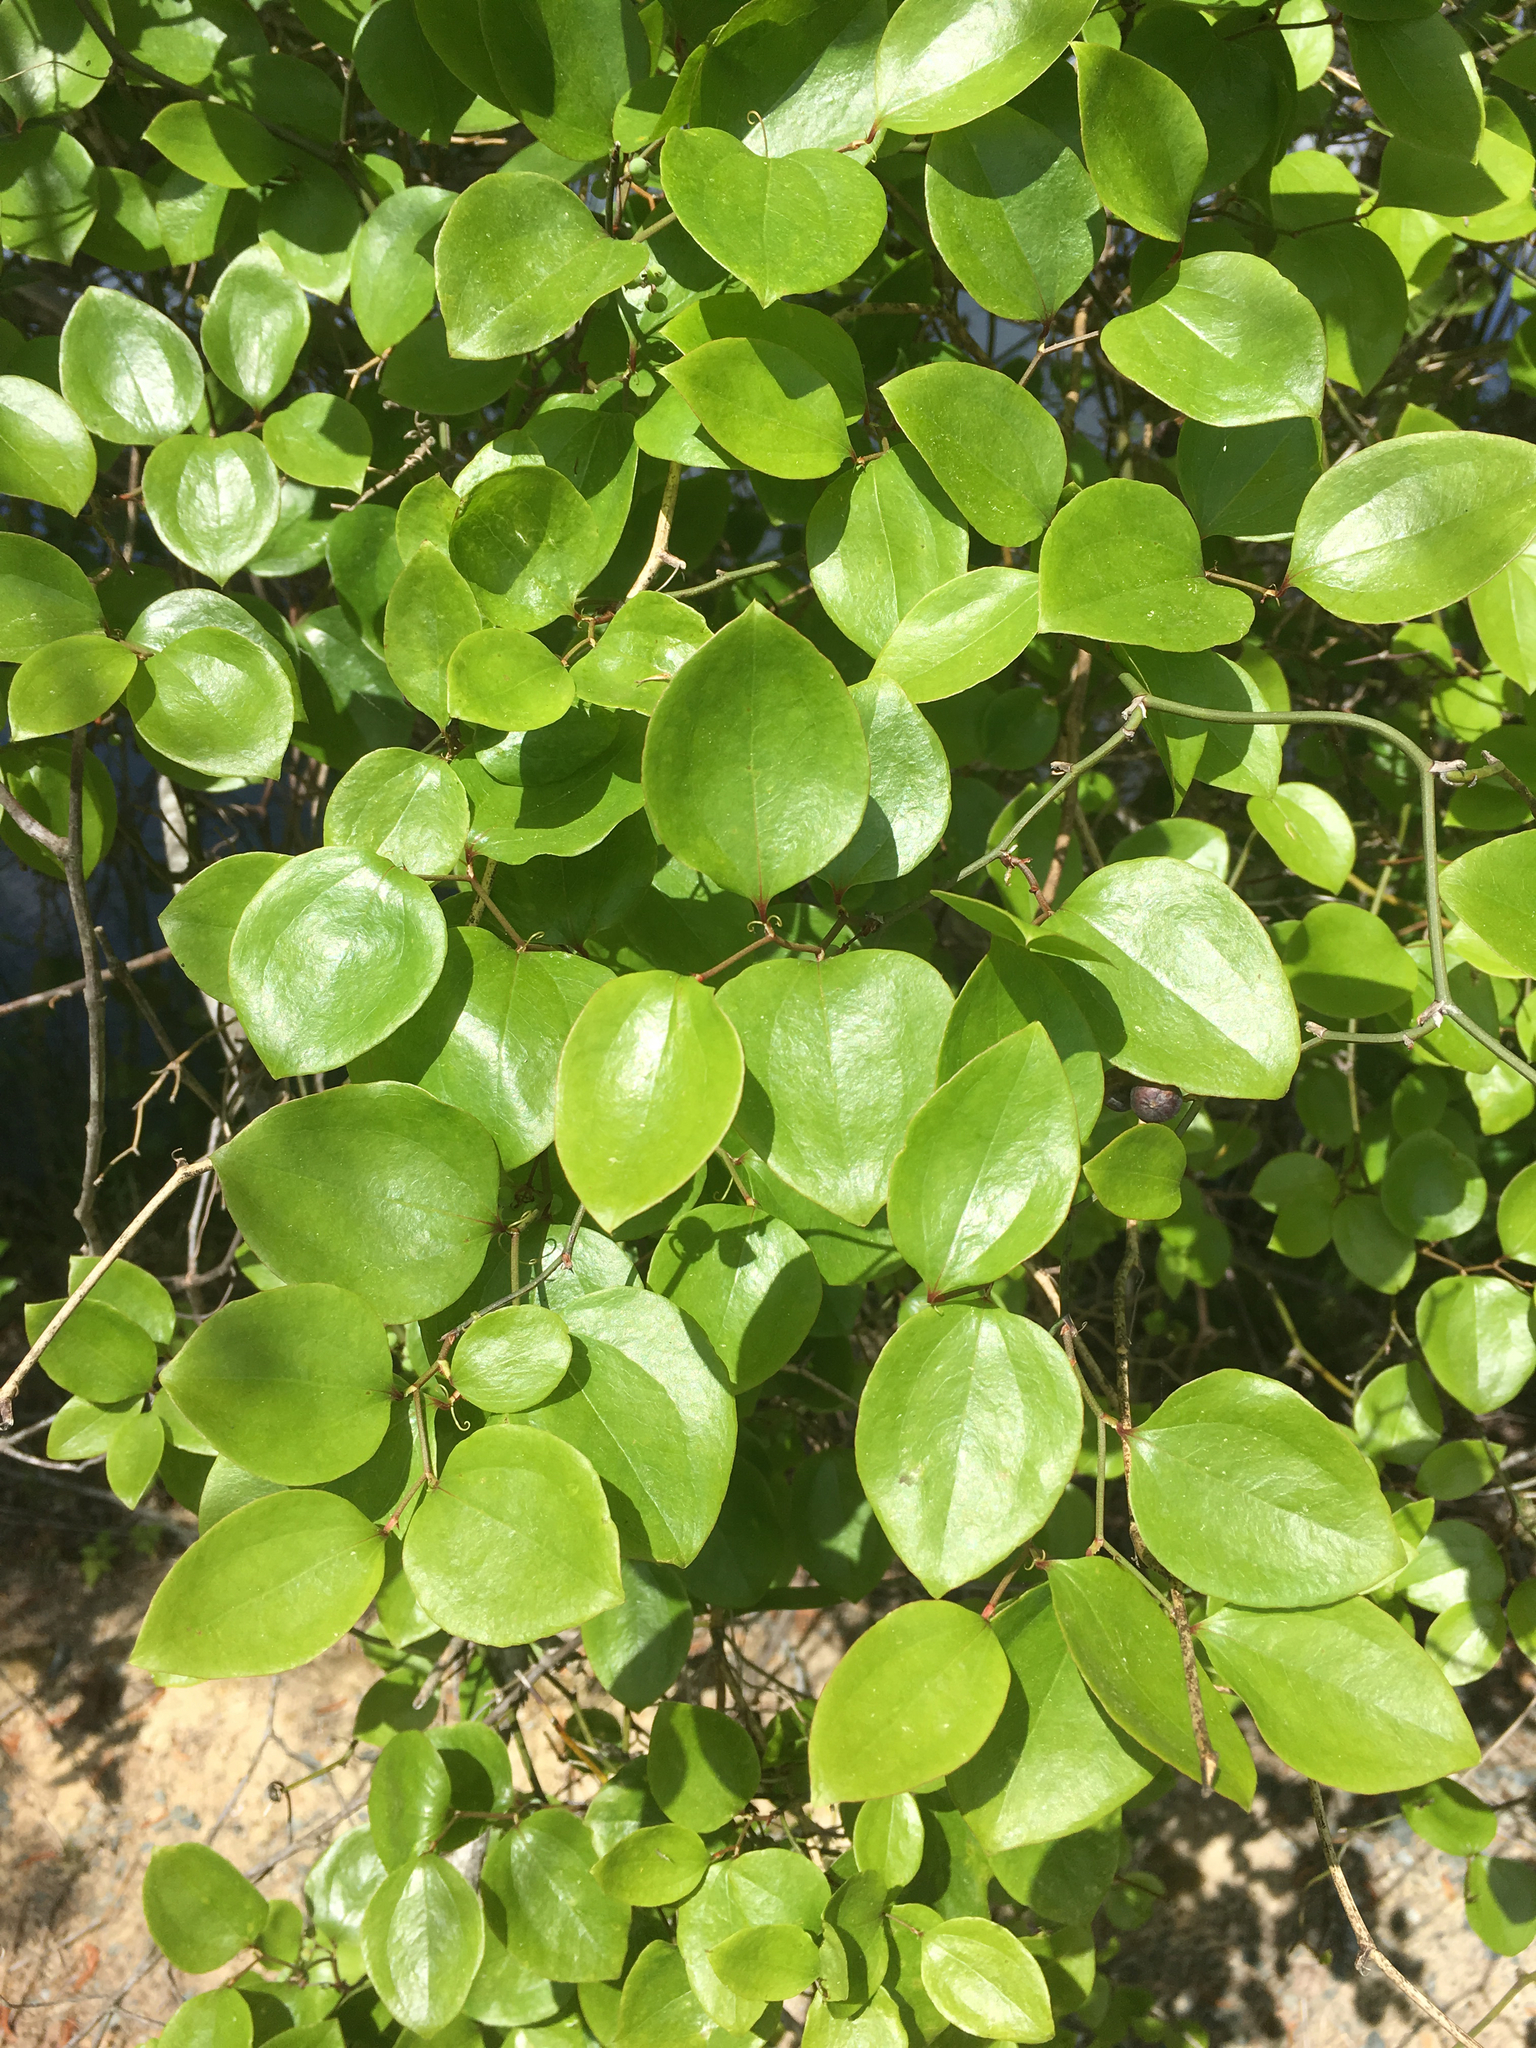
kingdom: Plantae
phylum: Tracheophyta
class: Liliopsida
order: Liliales
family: Smilacaceae
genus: Smilax
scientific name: Smilax rotundifolia
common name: Bullbriar
